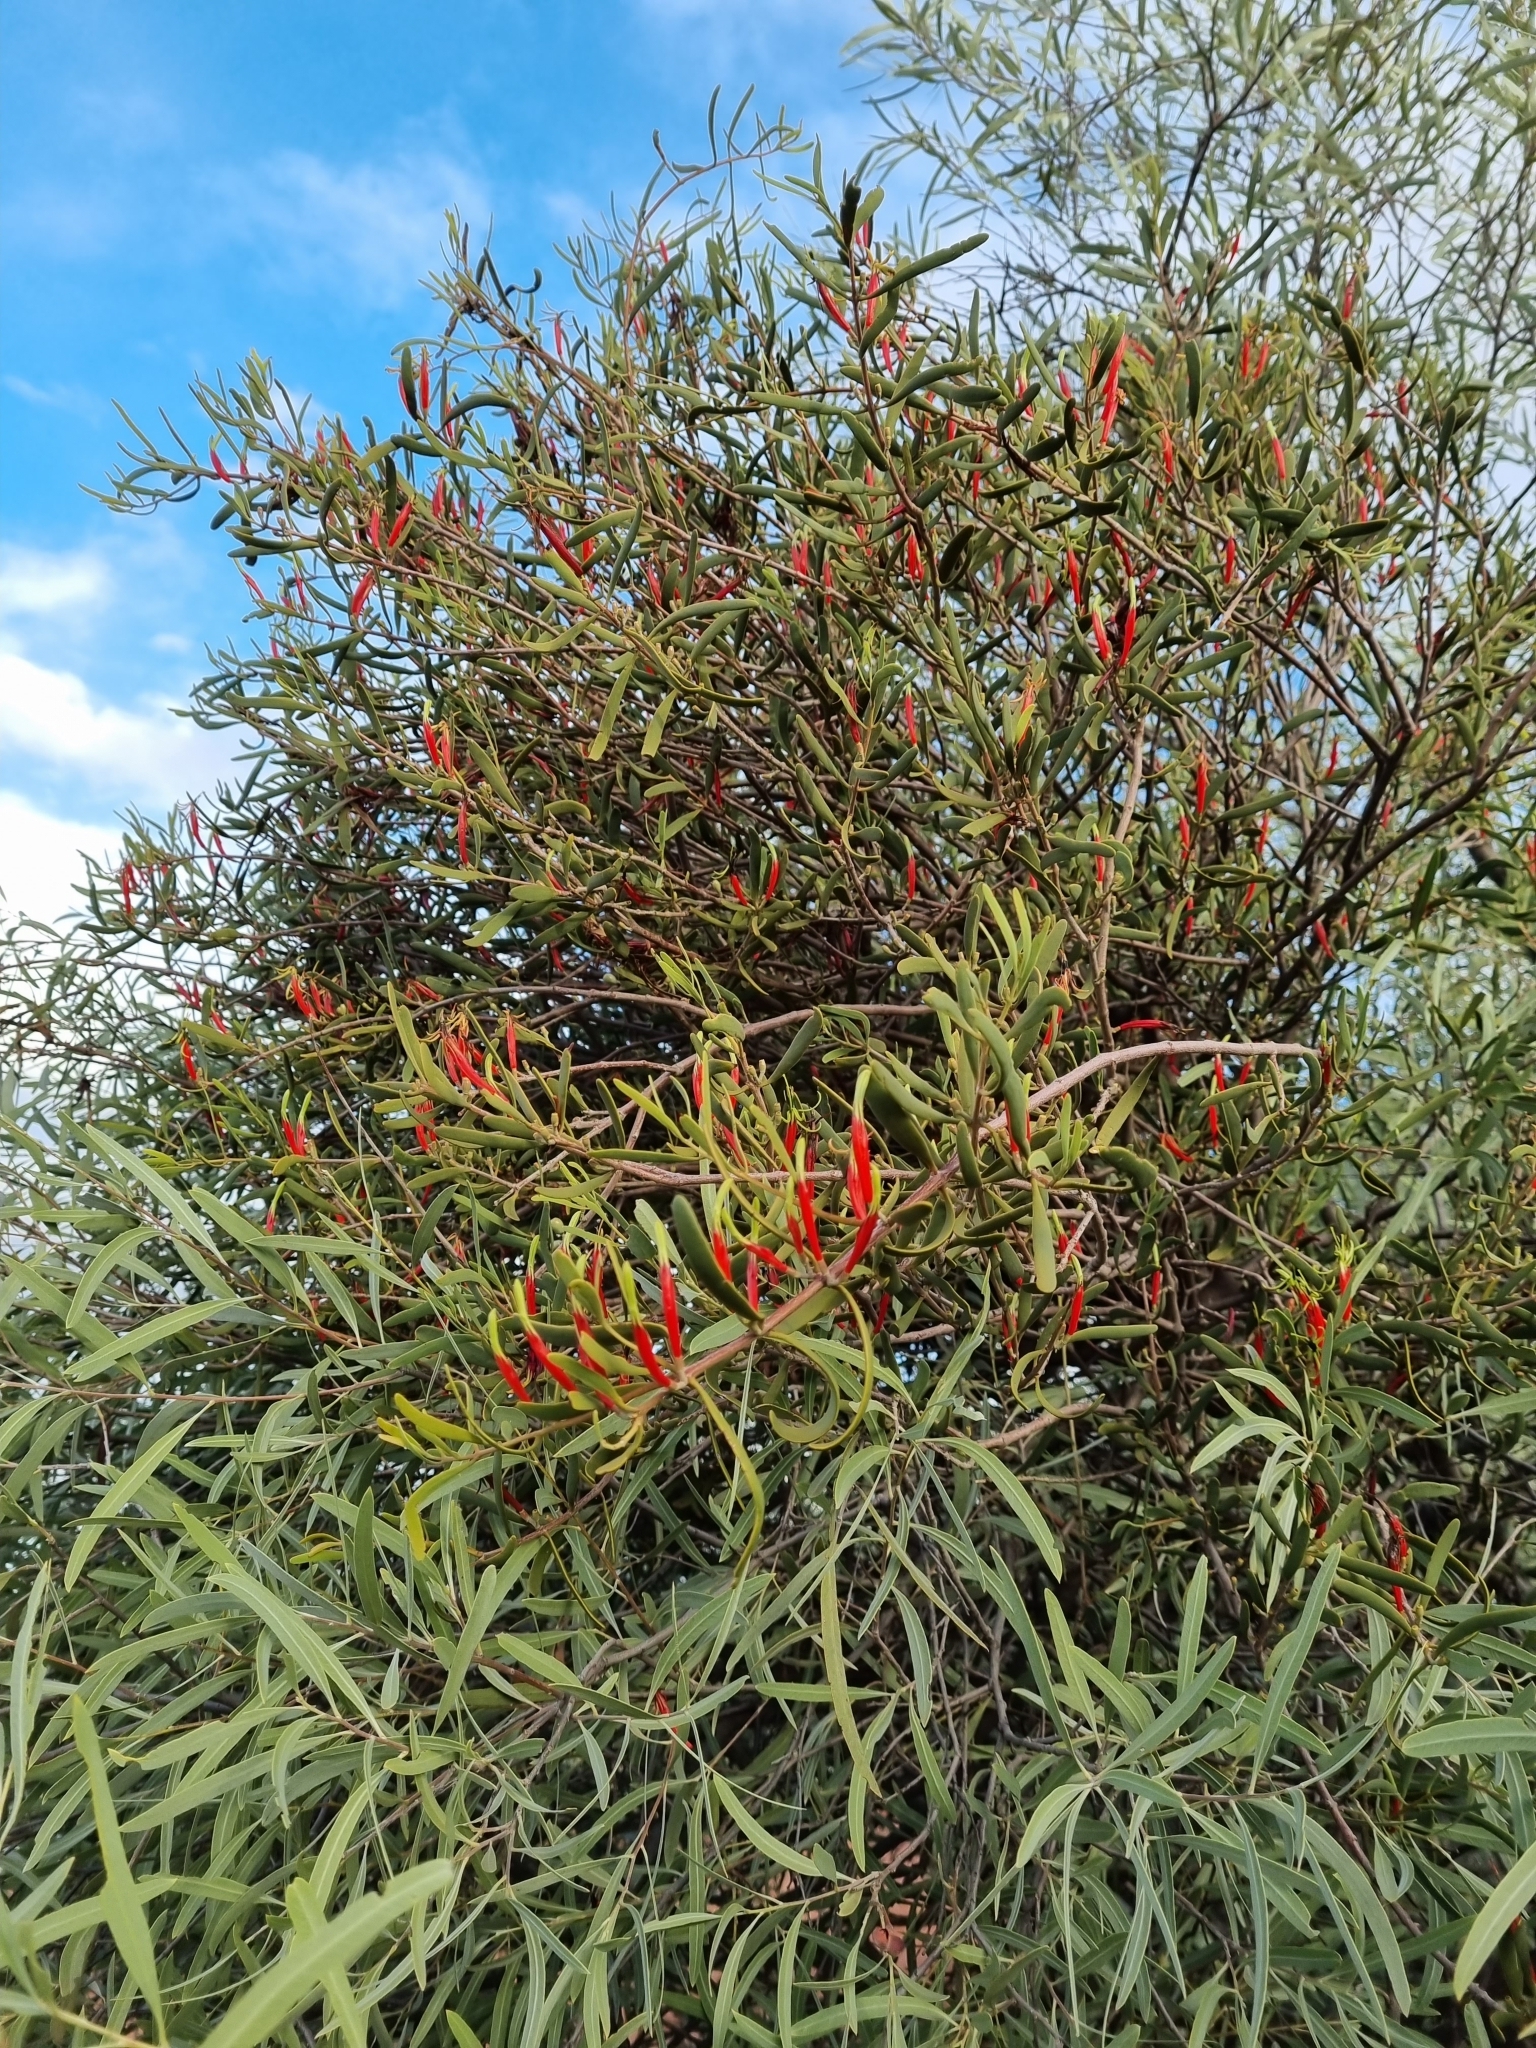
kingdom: Plantae
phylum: Tracheophyta
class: Magnoliopsida
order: Santalales
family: Loranthaceae
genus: Lysiana
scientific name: Lysiana exocarpi
